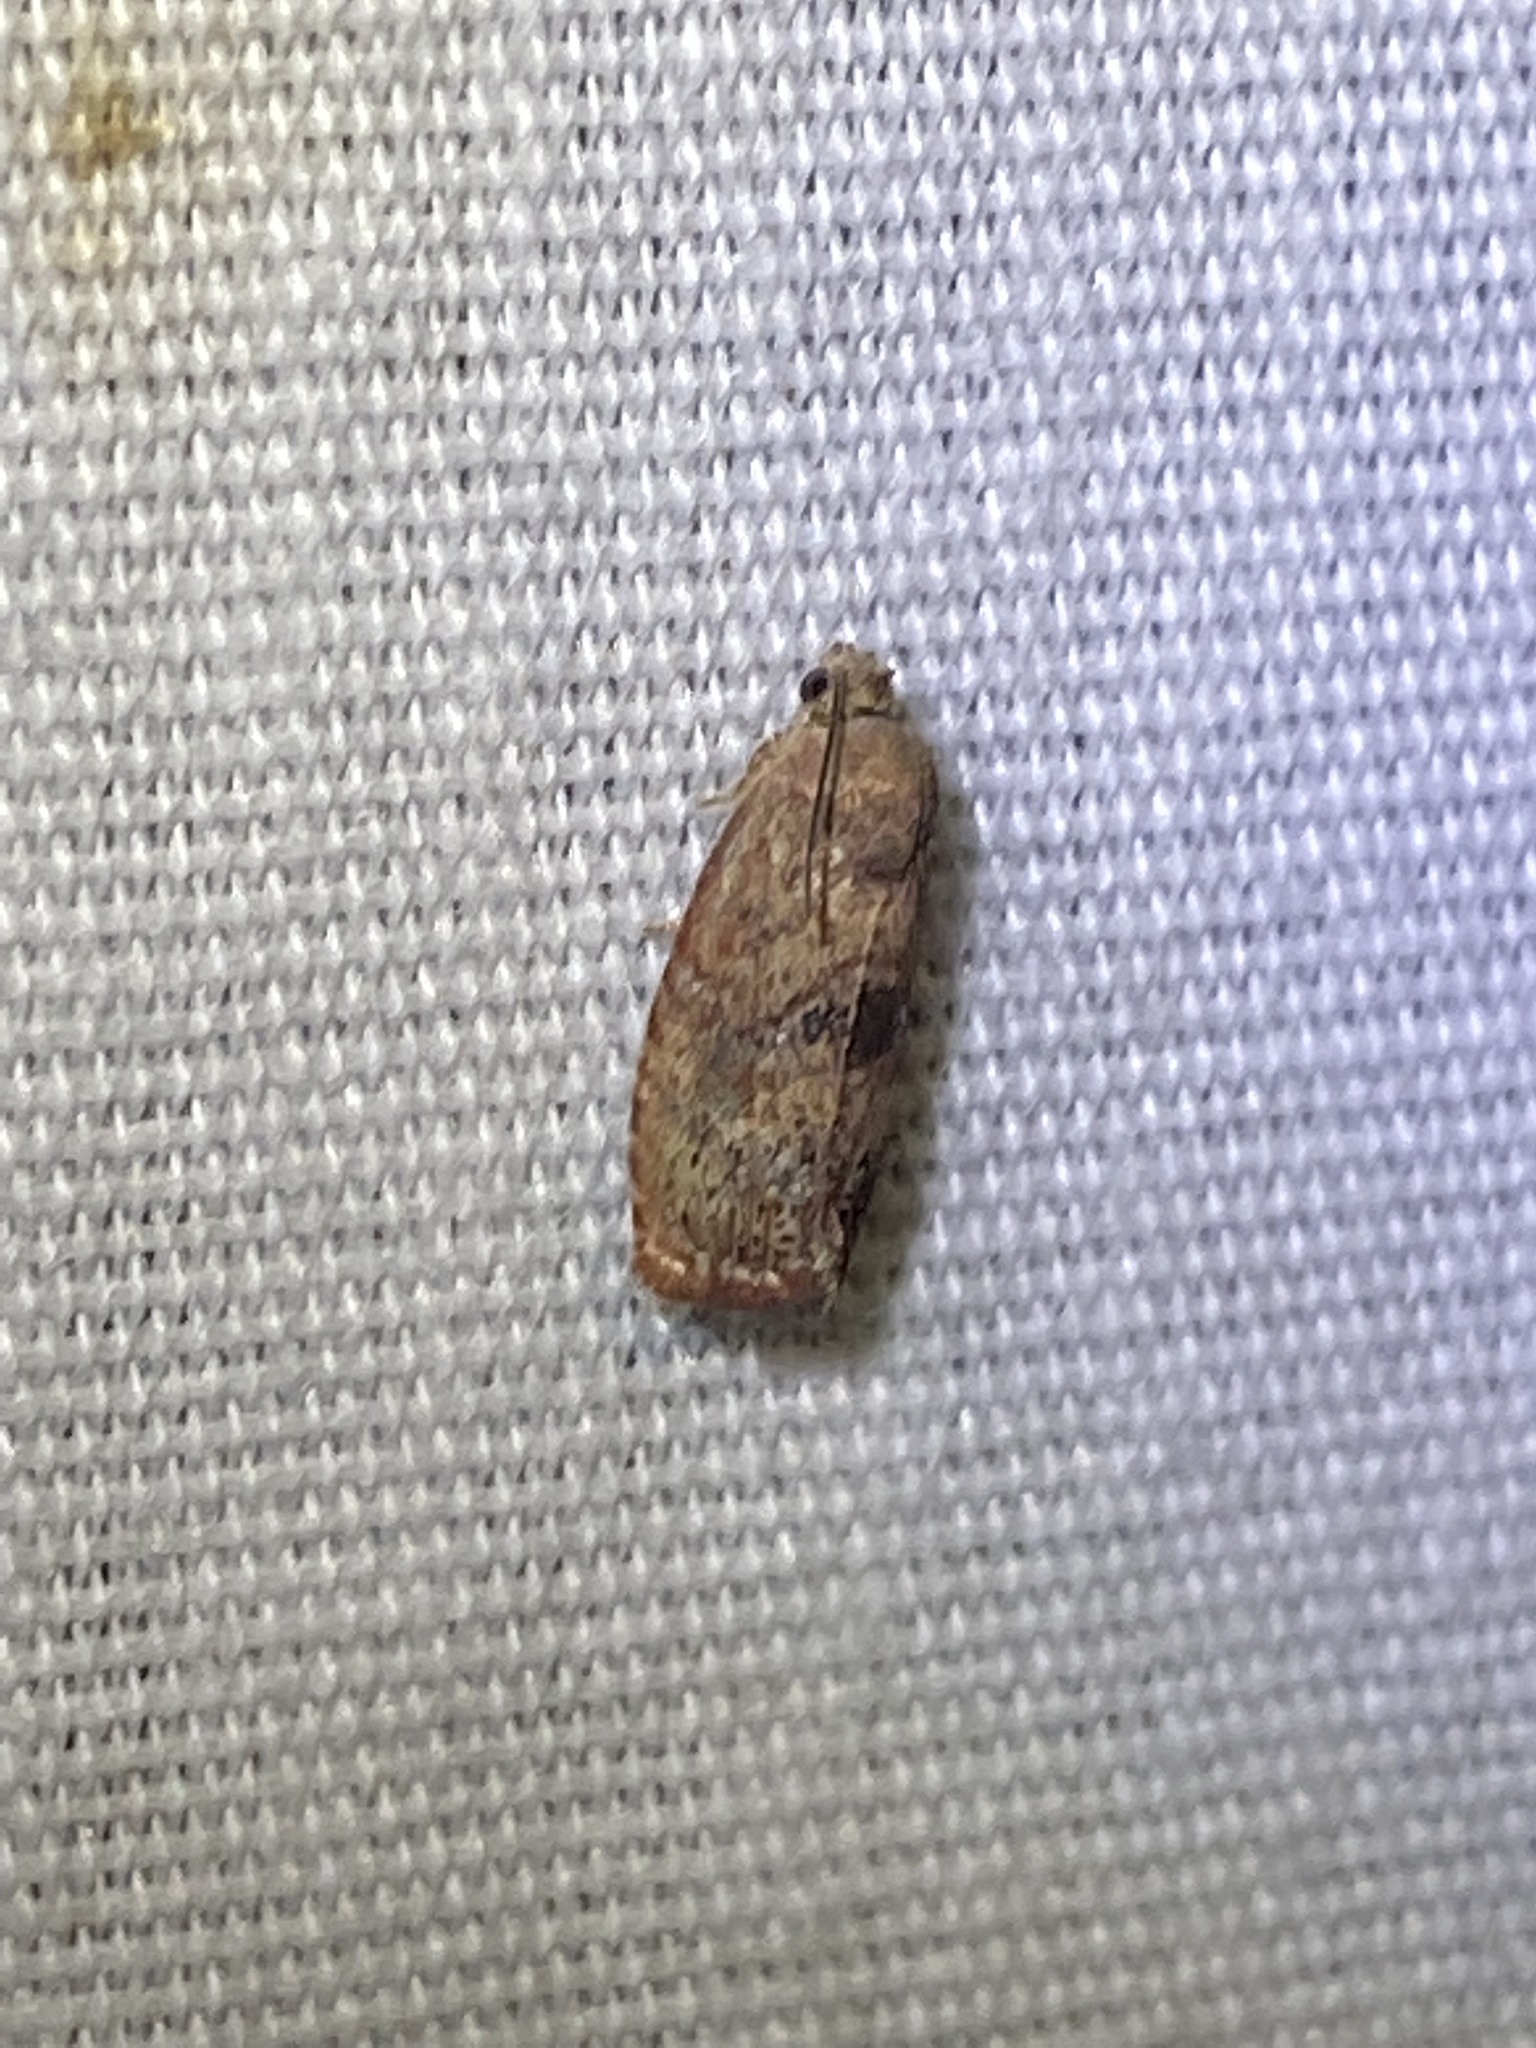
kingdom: Animalia
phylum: Arthropoda
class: Insecta
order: Lepidoptera
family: Tortricidae
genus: Cydia
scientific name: Cydia latiferreana
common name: Filbertworm moth
